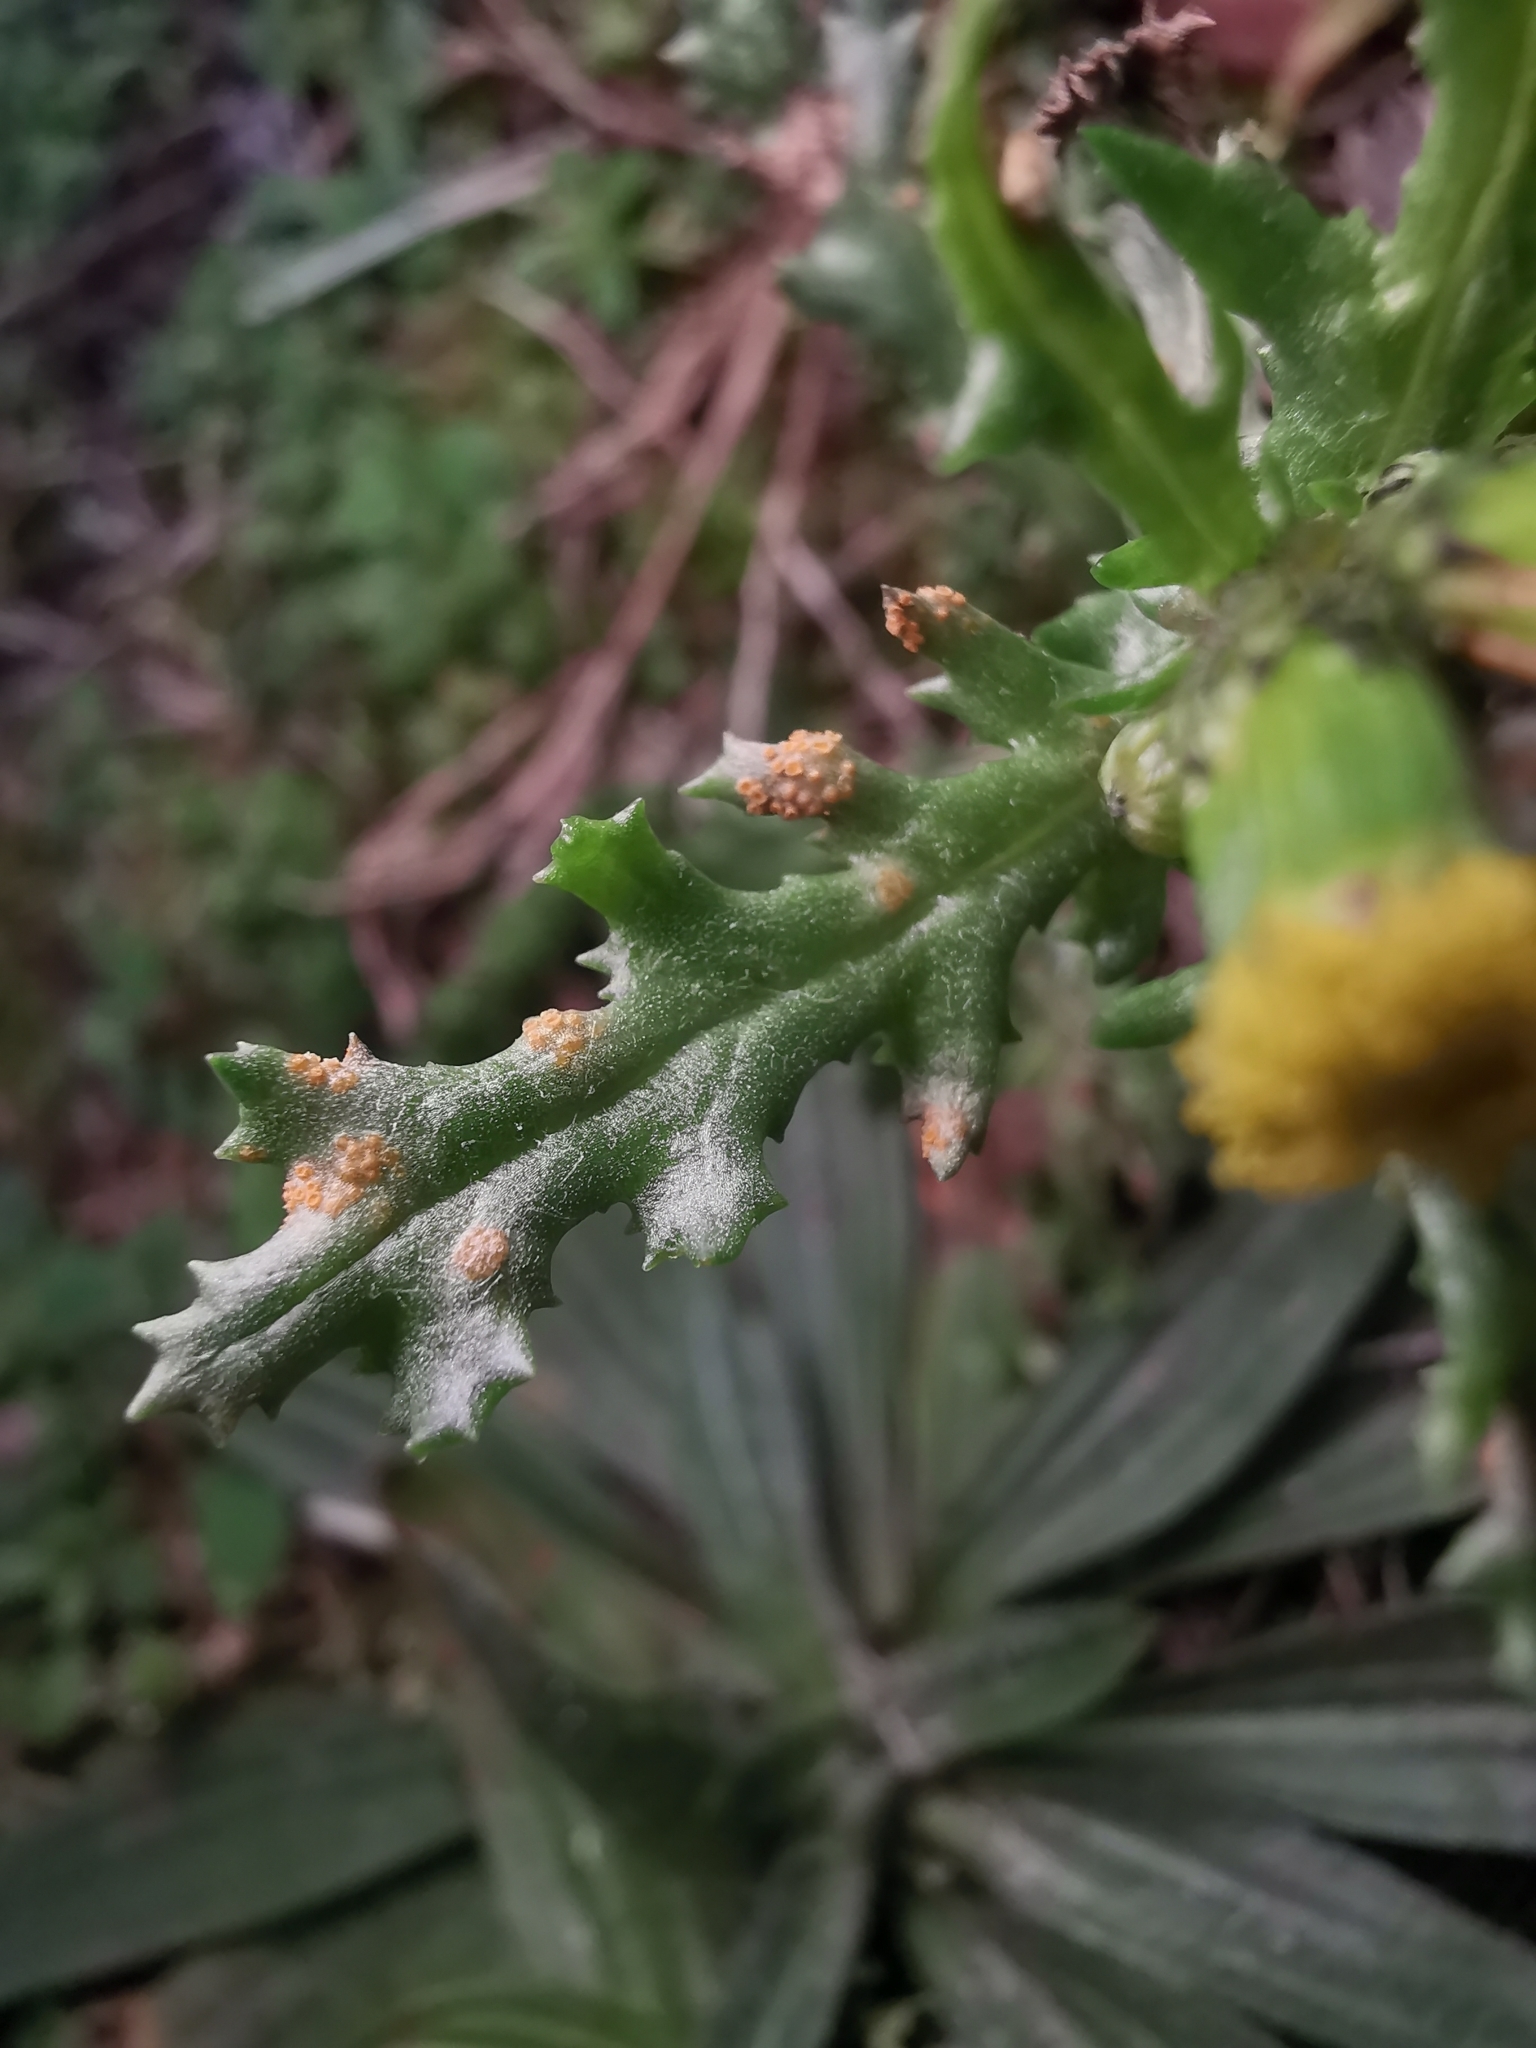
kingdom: Fungi
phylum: Basidiomycota
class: Pucciniomycetes
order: Pucciniales
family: Pucciniaceae
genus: Puccinia
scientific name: Puccinia lagenophorae
